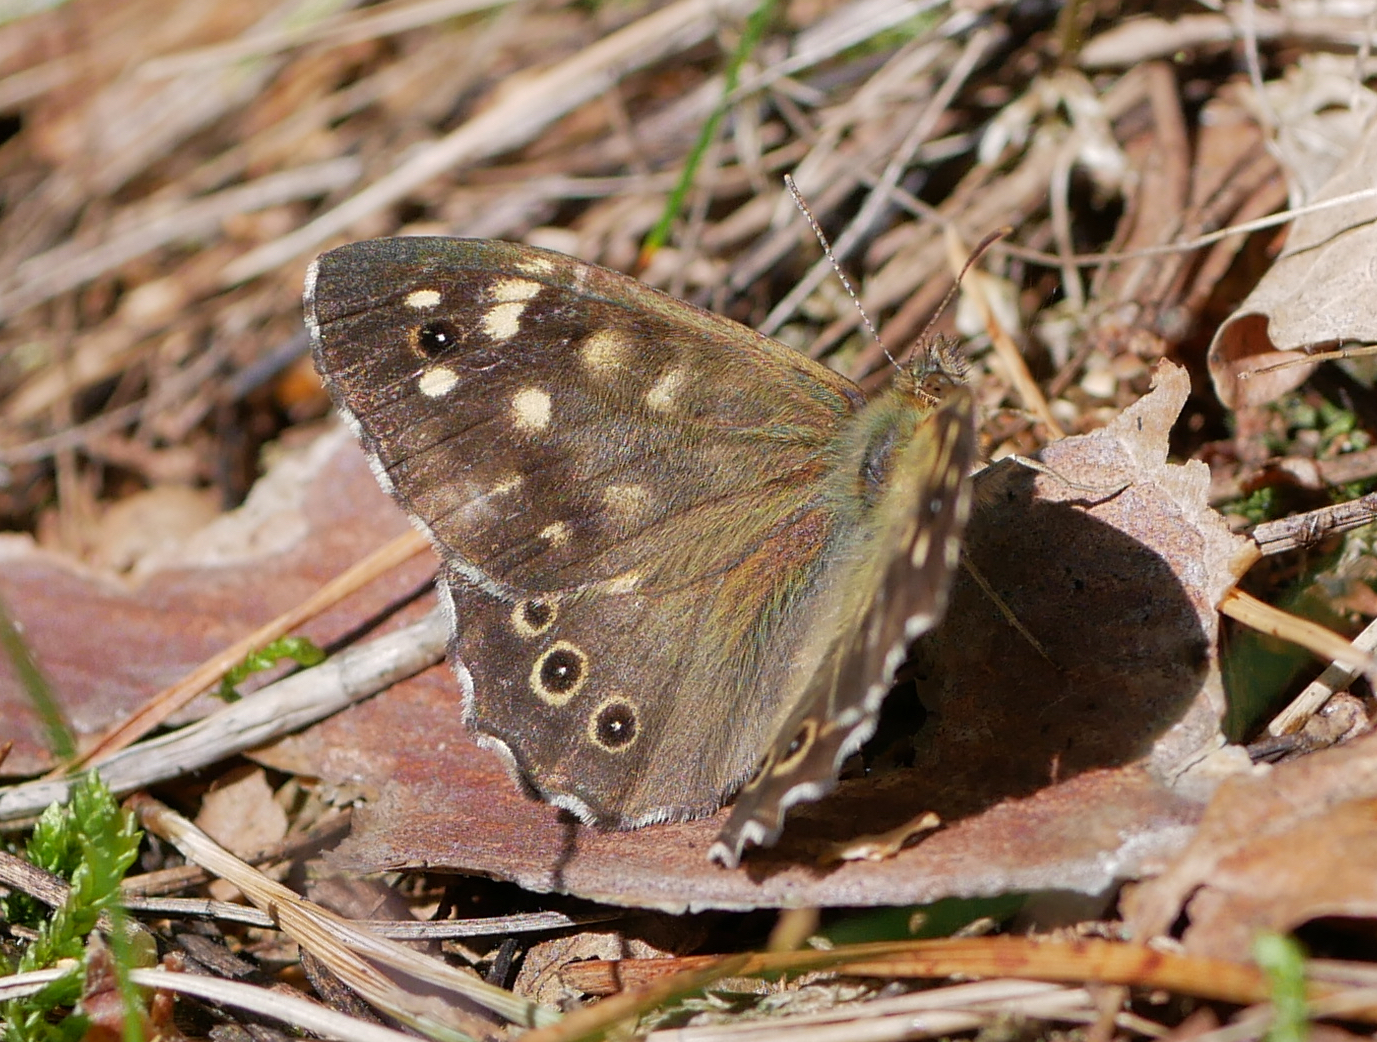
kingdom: Animalia
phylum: Arthropoda
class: Insecta
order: Lepidoptera
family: Nymphalidae
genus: Pararge
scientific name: Pararge aegeria
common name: Speckled wood
